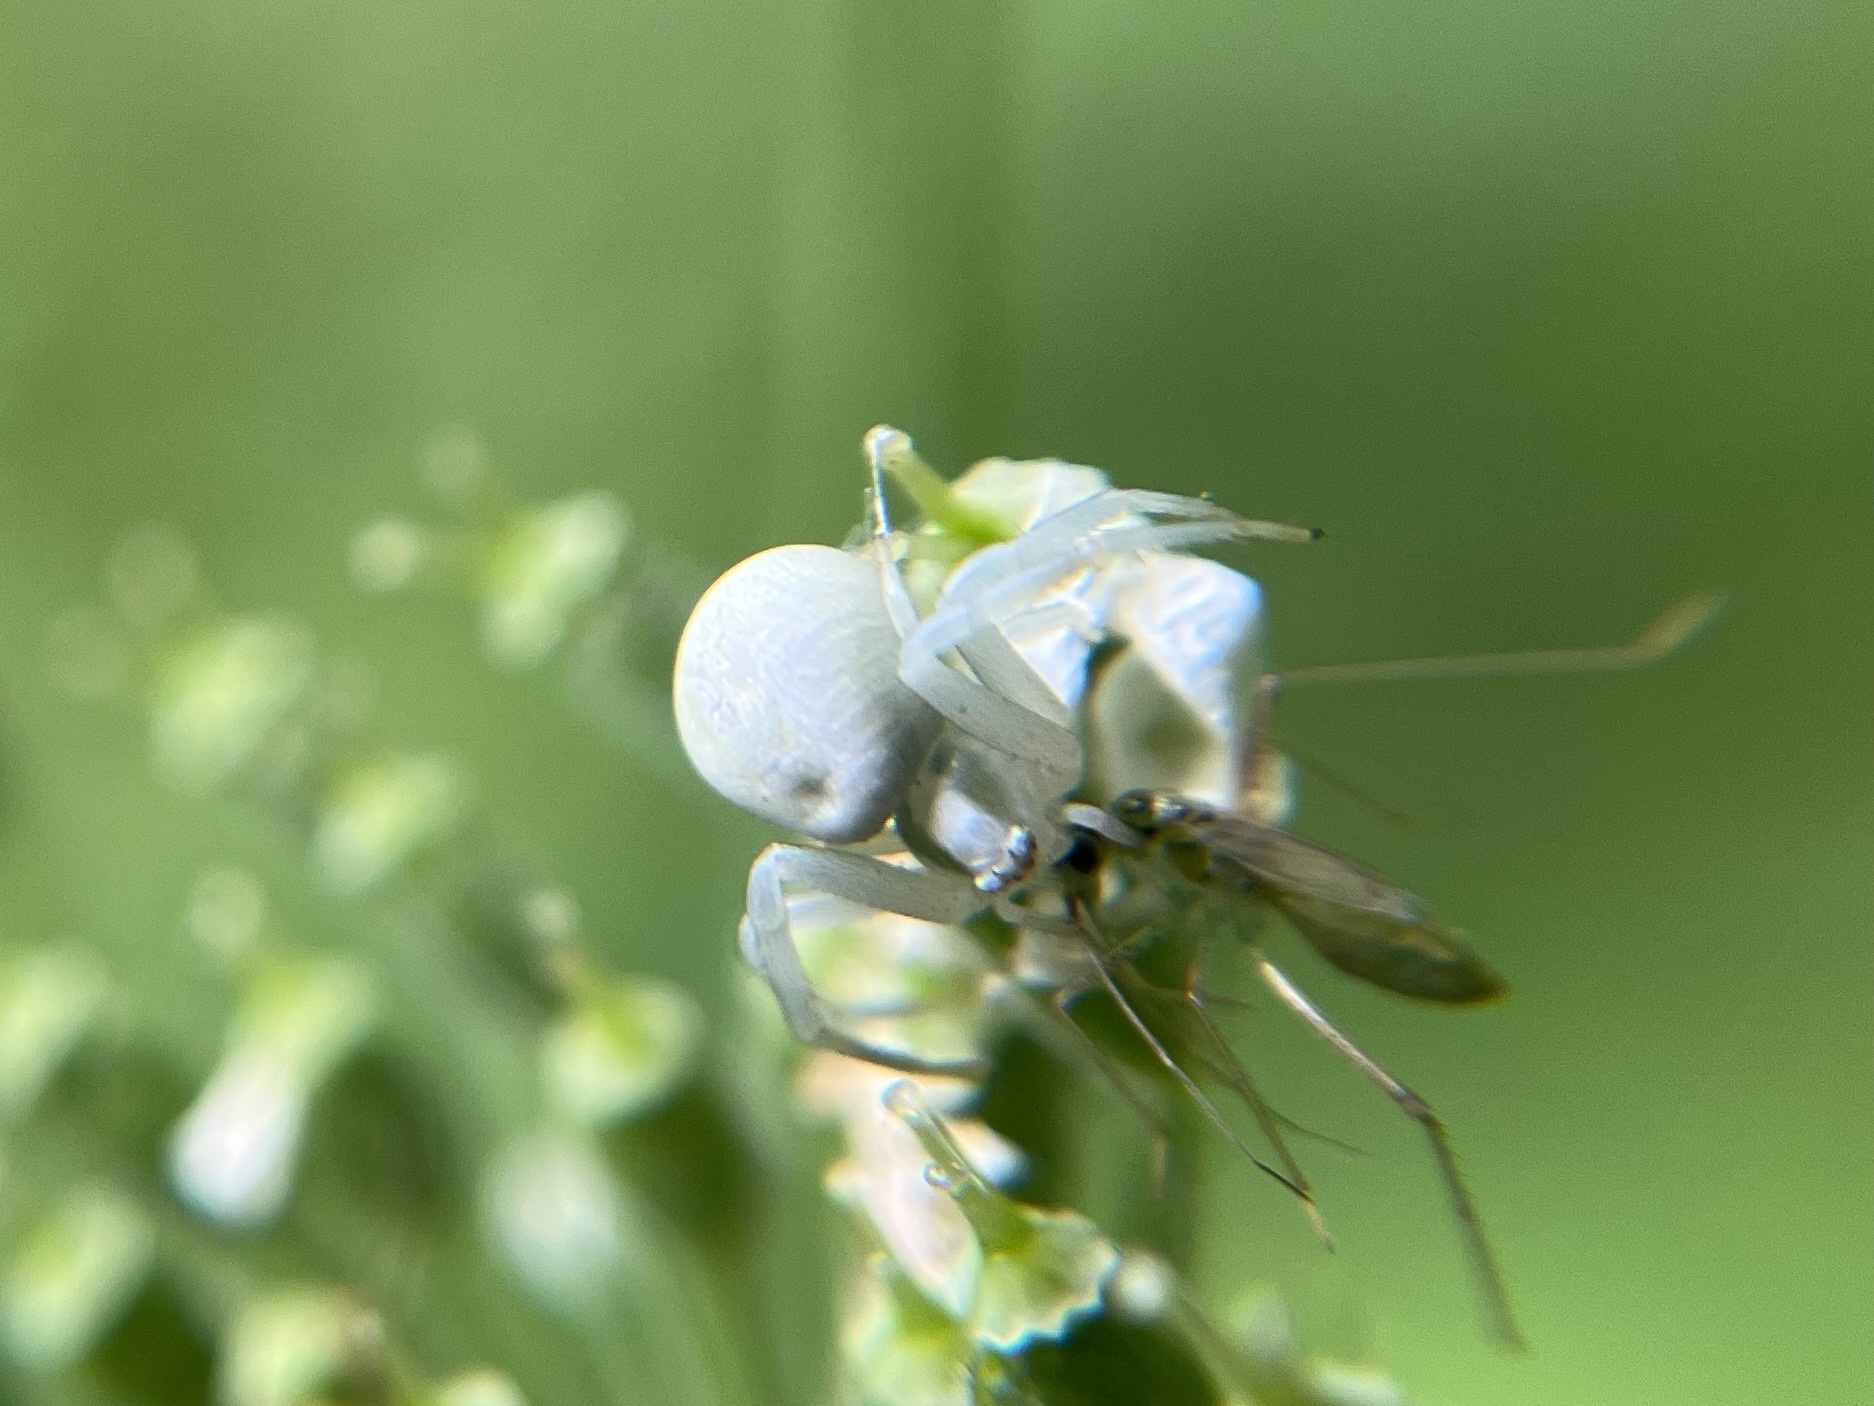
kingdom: Animalia
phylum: Arthropoda
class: Arachnida
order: Araneae
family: Thomisidae
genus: Misumena
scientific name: Misumena vatia
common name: Goldenrod crab spider
